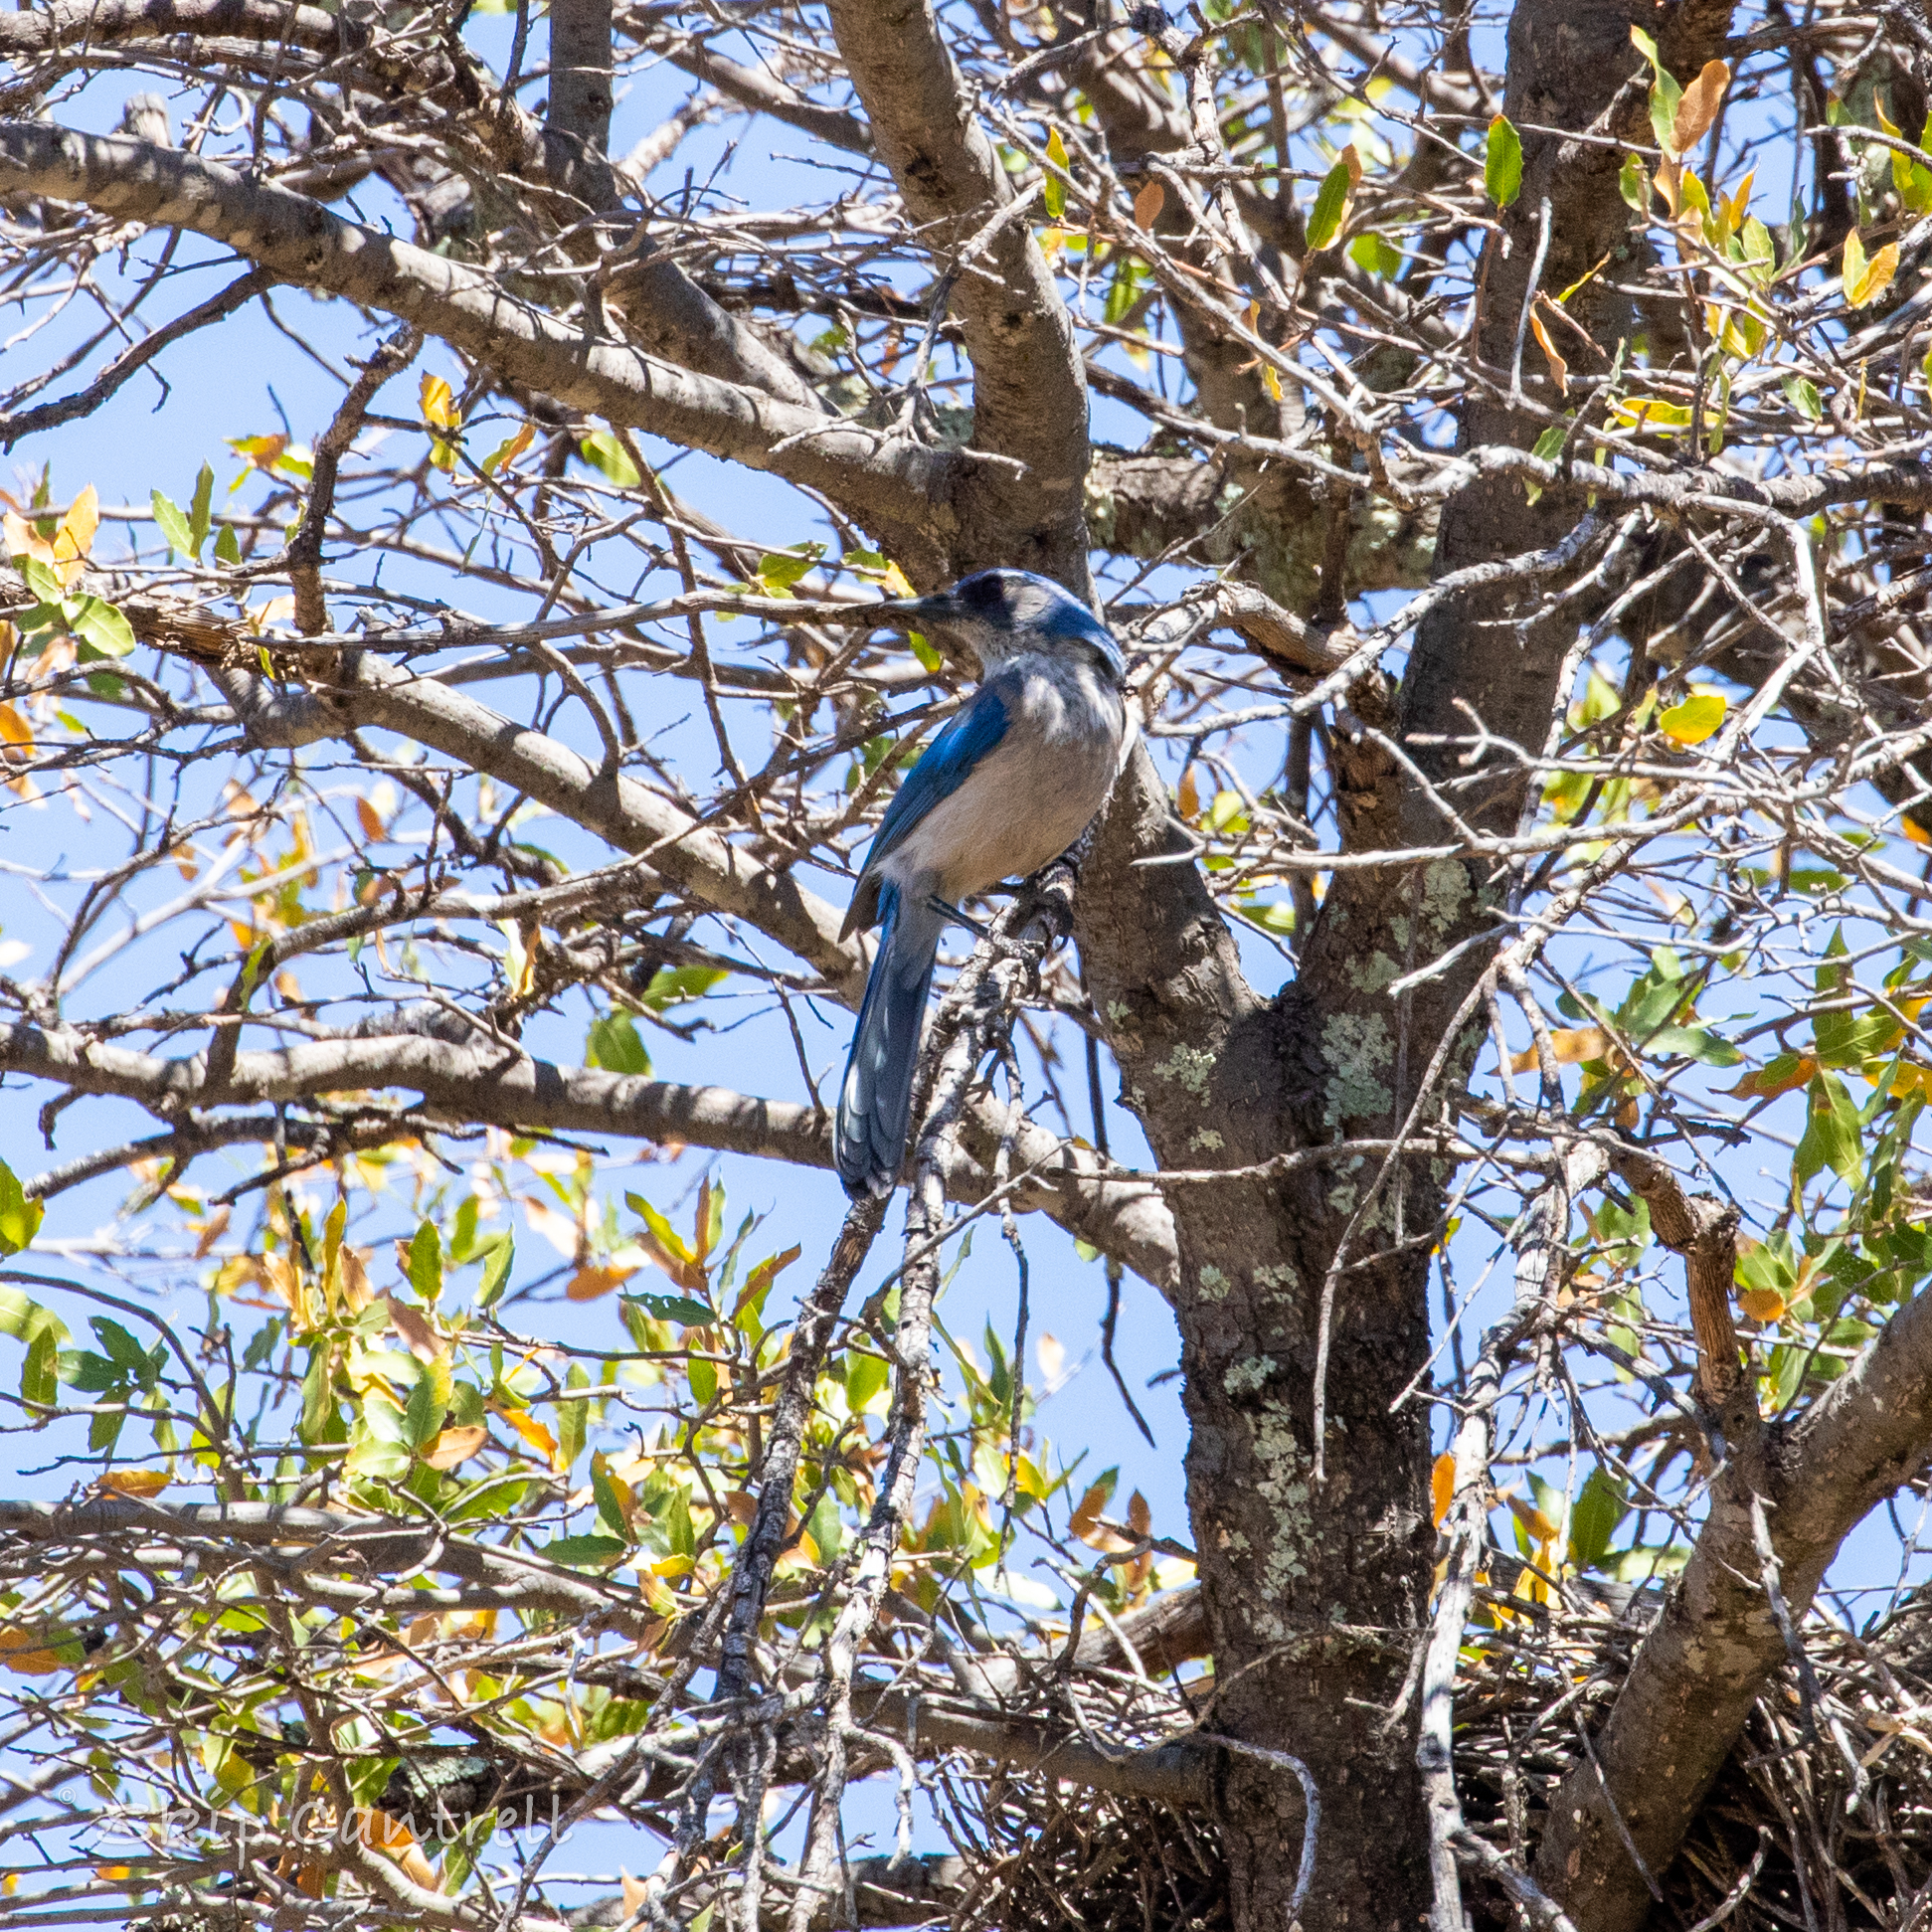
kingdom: Animalia
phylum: Chordata
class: Aves
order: Passeriformes
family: Corvidae
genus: Aphelocoma
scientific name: Aphelocoma woodhouseii
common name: Woodhouse's scrub-jay
